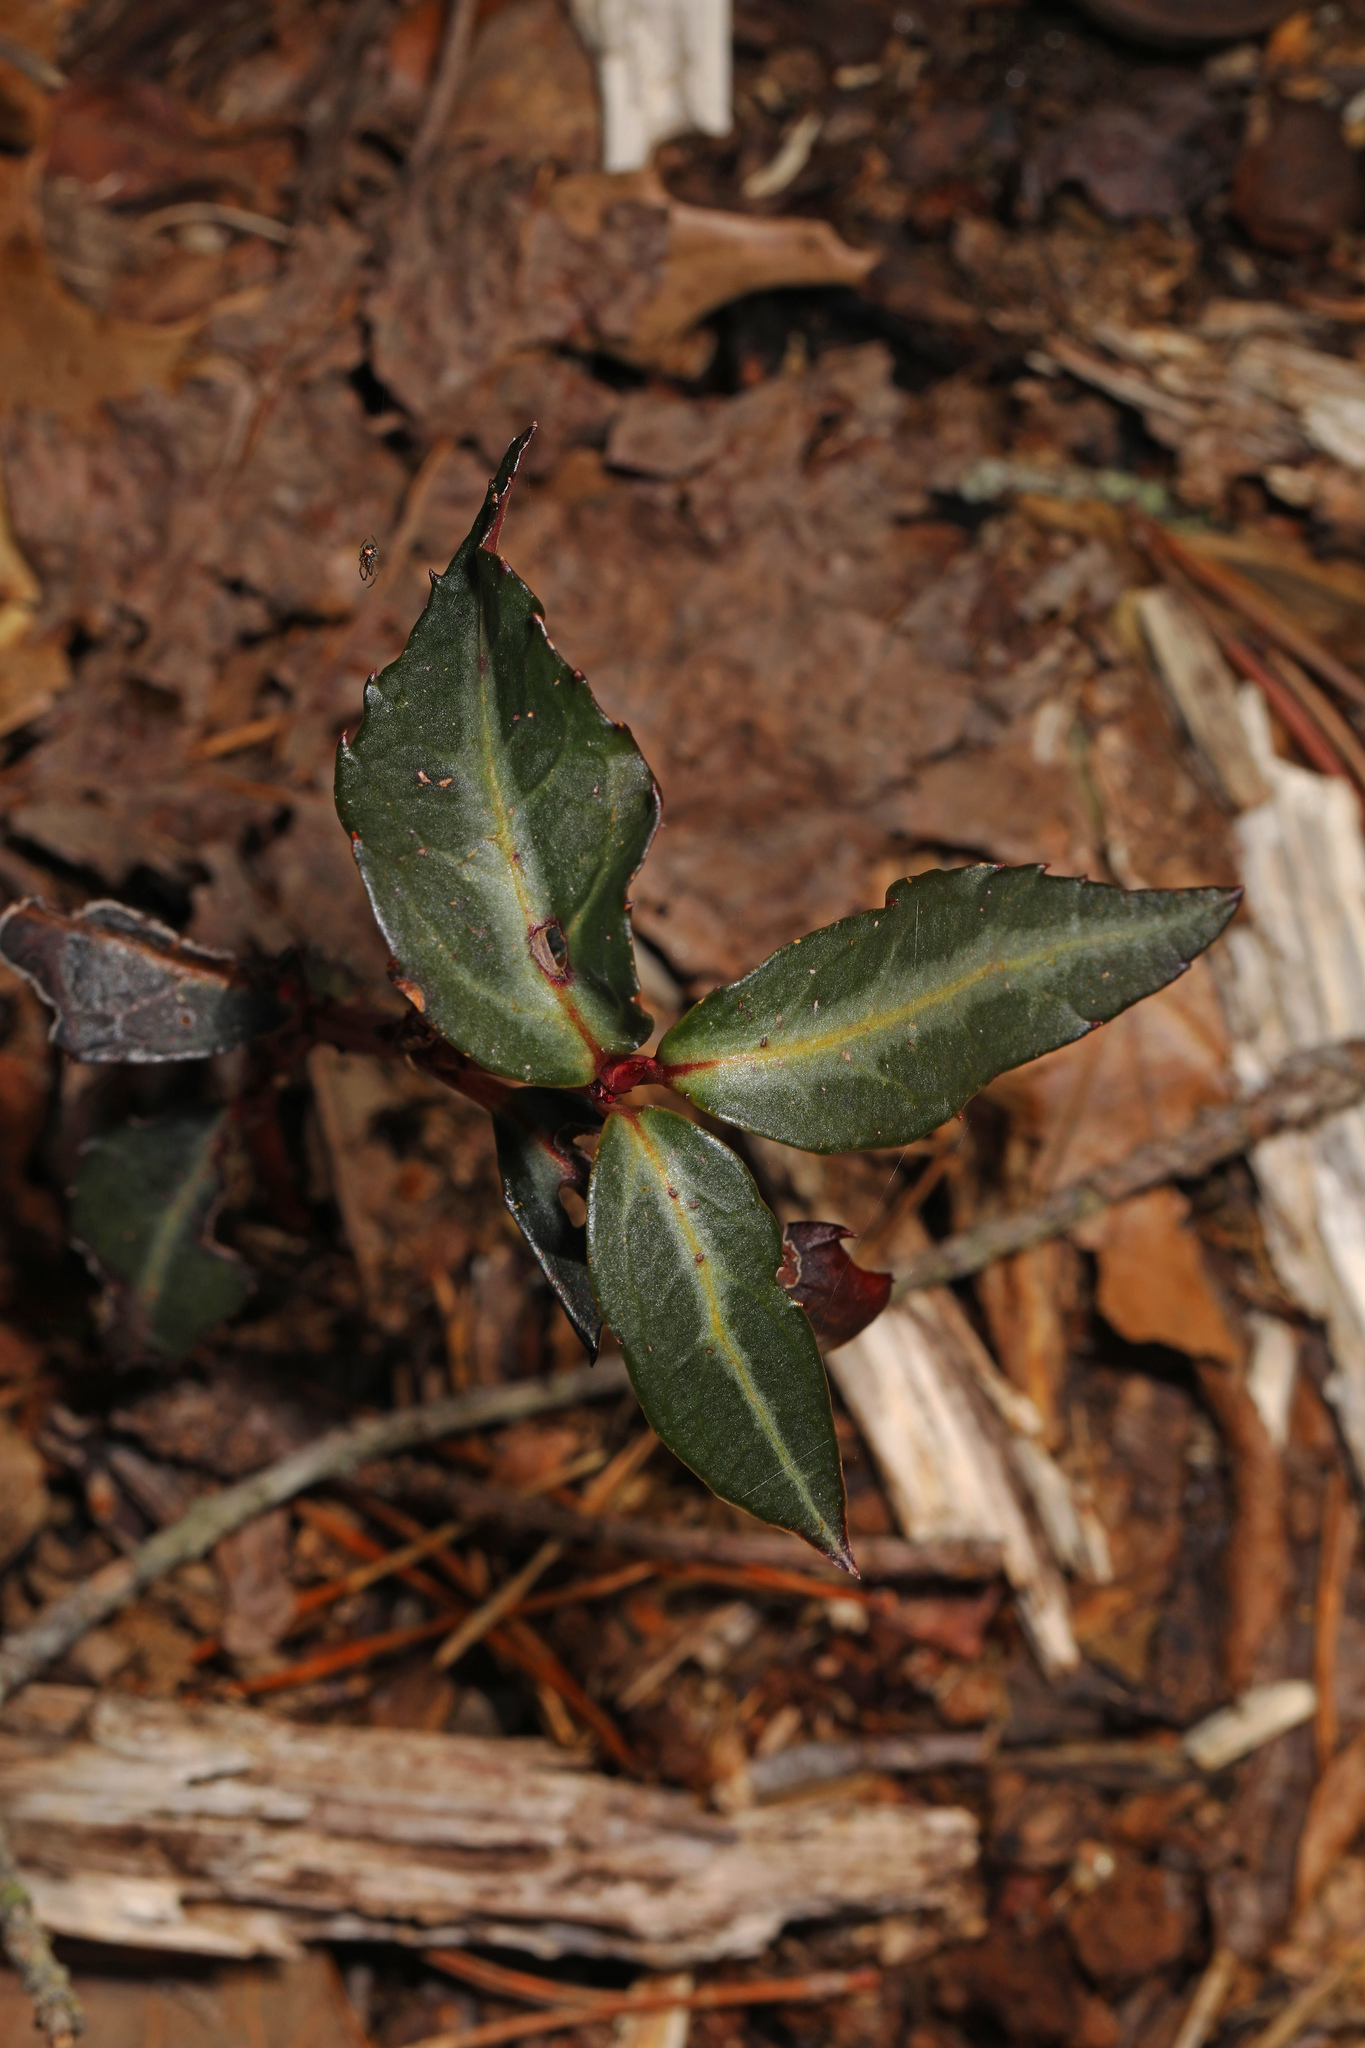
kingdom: Plantae
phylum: Tracheophyta
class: Magnoliopsida
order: Ericales
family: Ericaceae
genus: Chimaphila
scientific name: Chimaphila maculata
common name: Spotted pipsissewa
